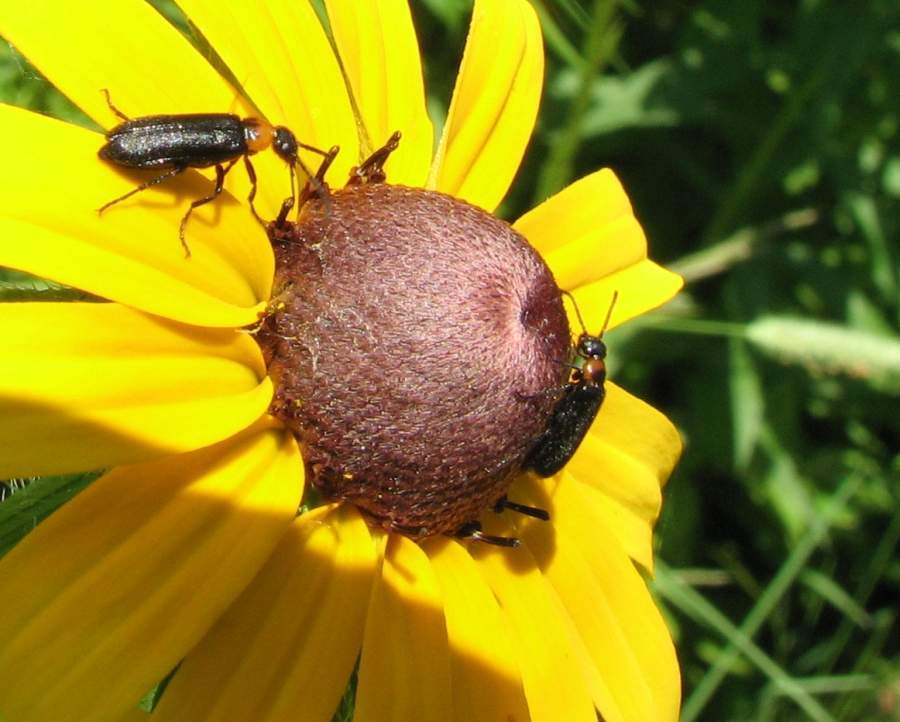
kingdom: Animalia
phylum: Arthropoda
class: Insecta
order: Coleoptera
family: Meloidae
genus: Nemognatha
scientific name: Nemognatha nemorensis
